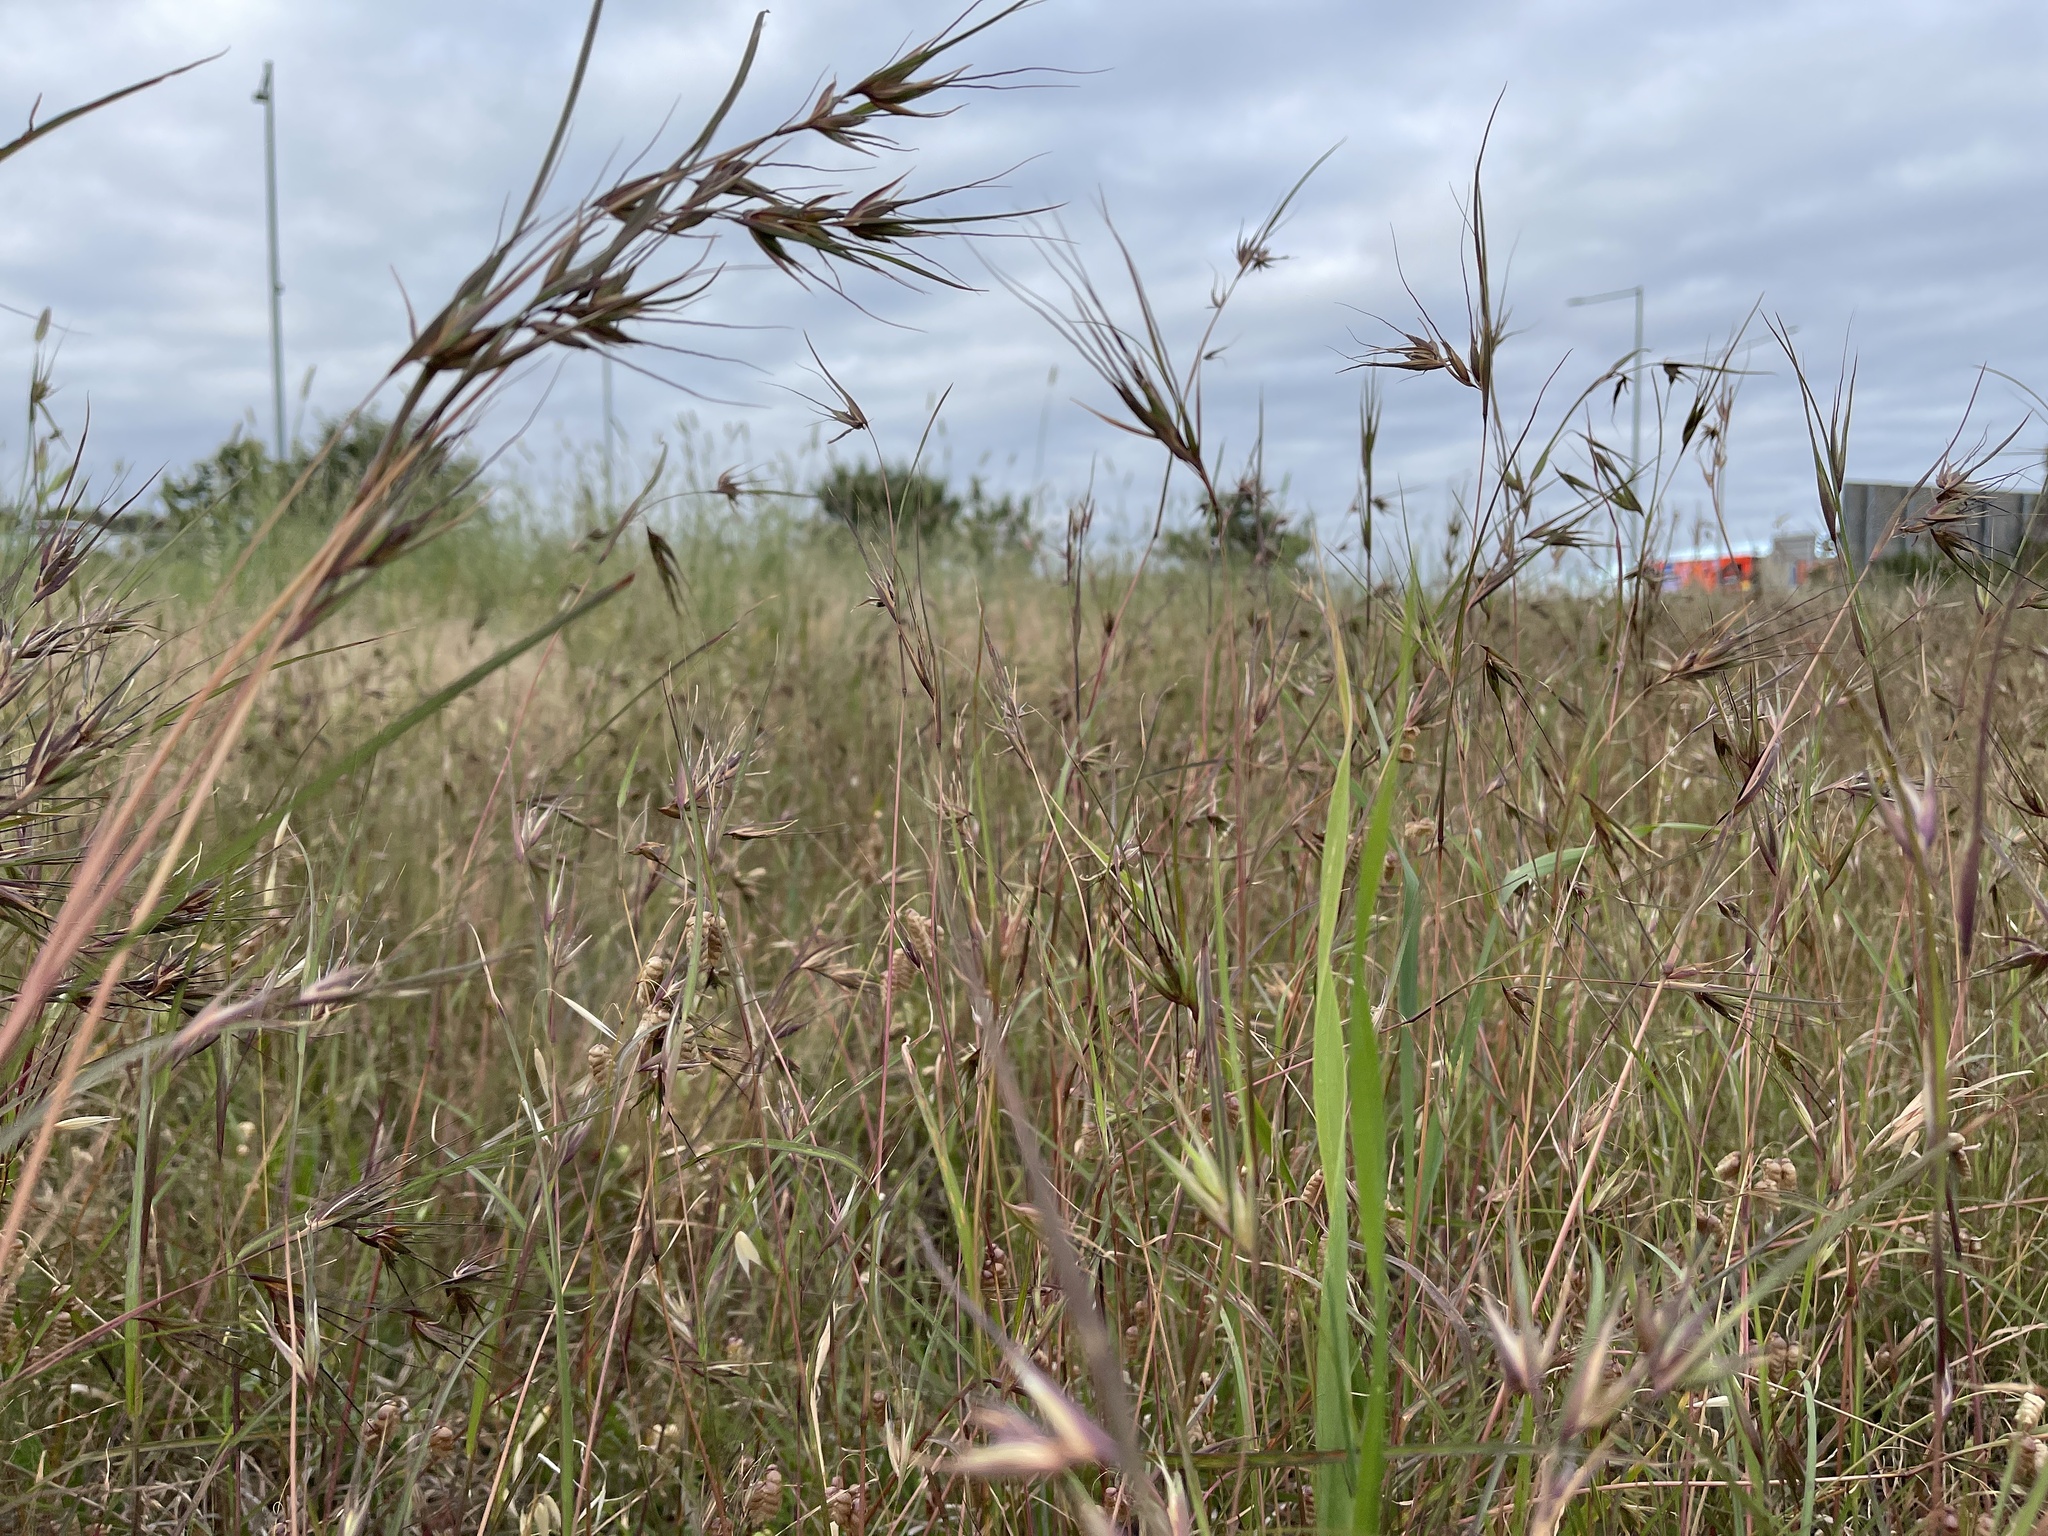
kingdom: Plantae
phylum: Tracheophyta
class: Liliopsida
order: Poales
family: Poaceae
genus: Themeda
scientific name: Themeda triandra
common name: Kangaroo grass
